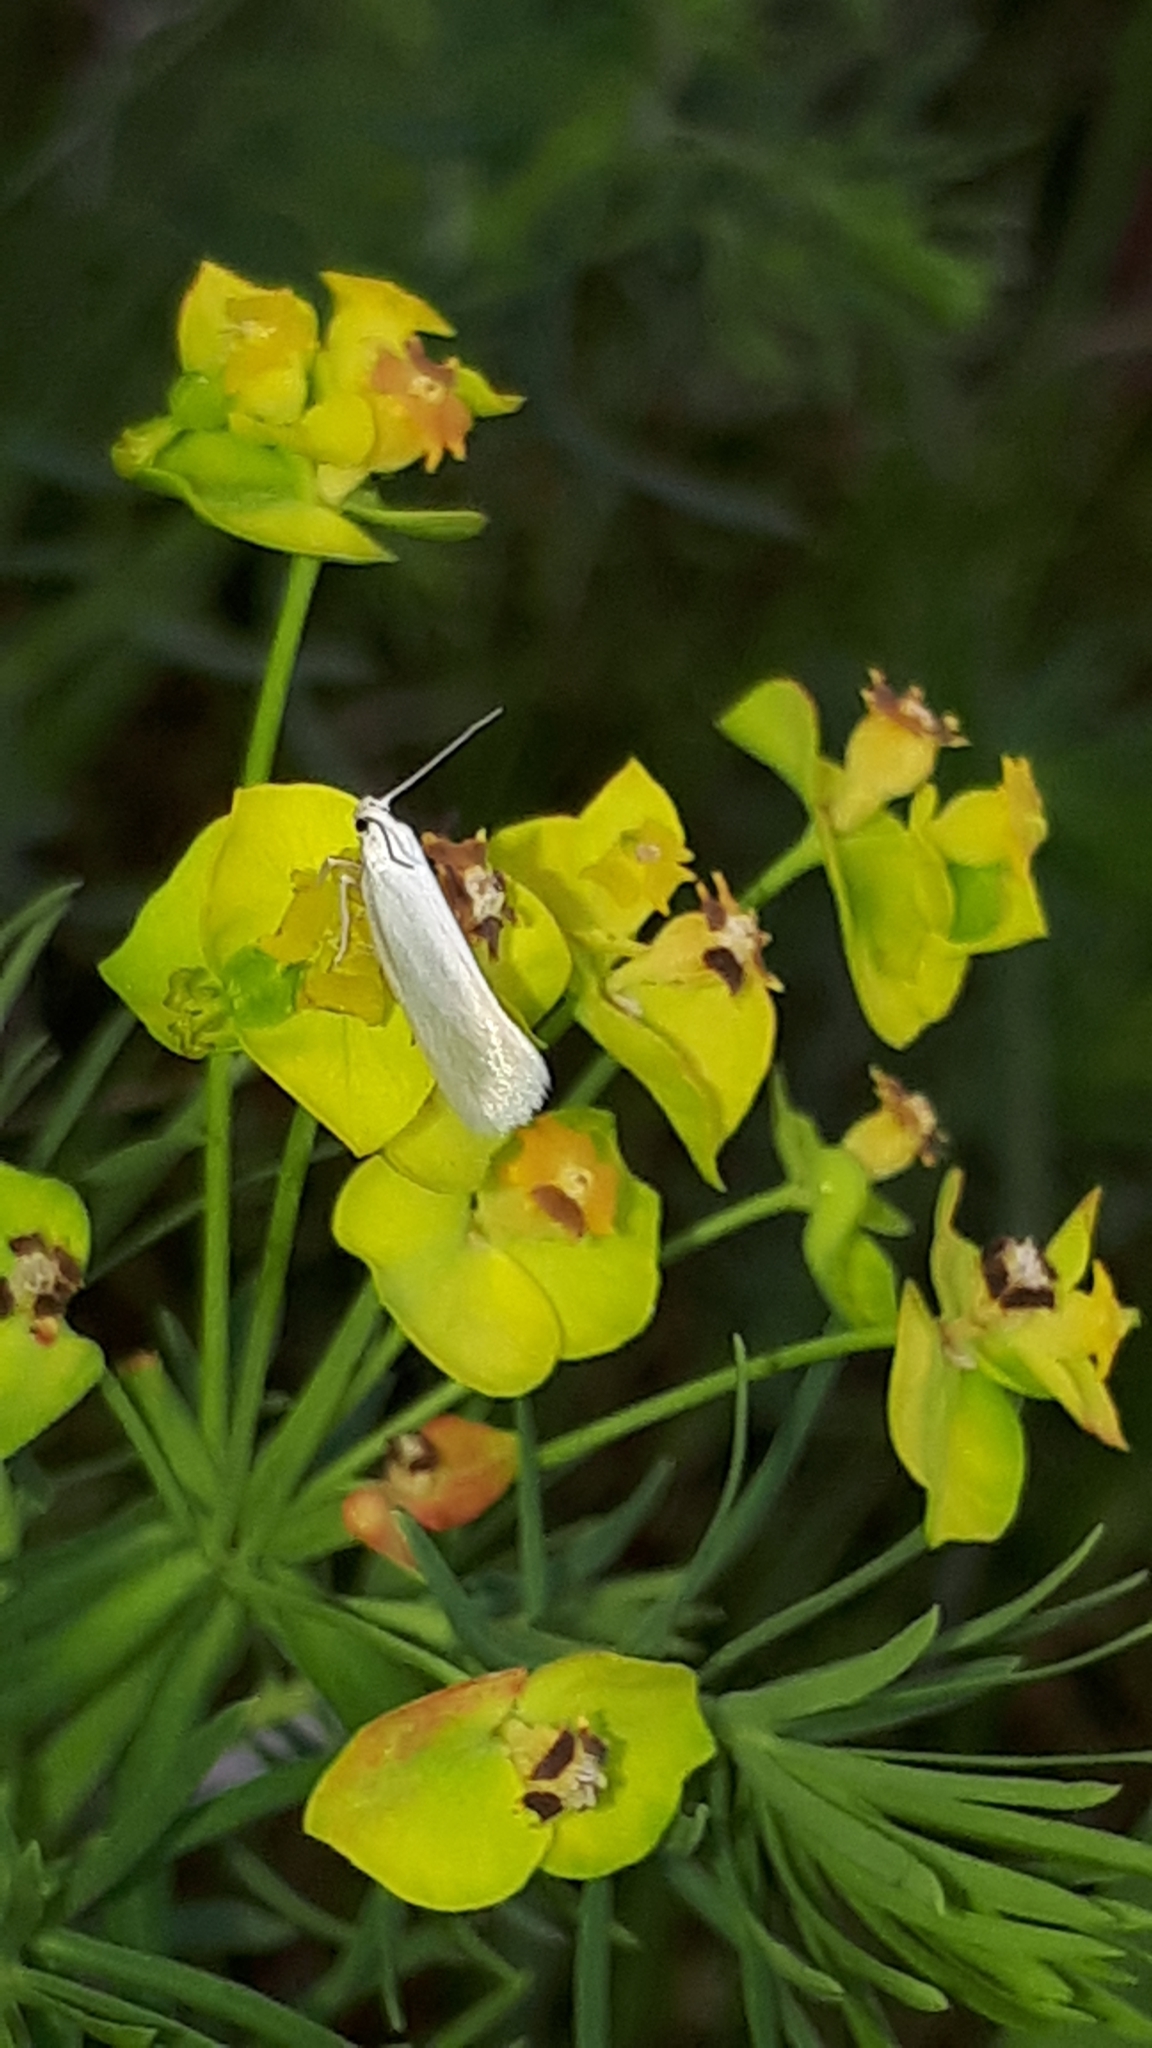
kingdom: Animalia
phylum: Arthropoda
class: Insecta
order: Lepidoptera
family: Crambidae
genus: Crambus
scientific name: Crambus perlellus
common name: Yellow satin veneer
